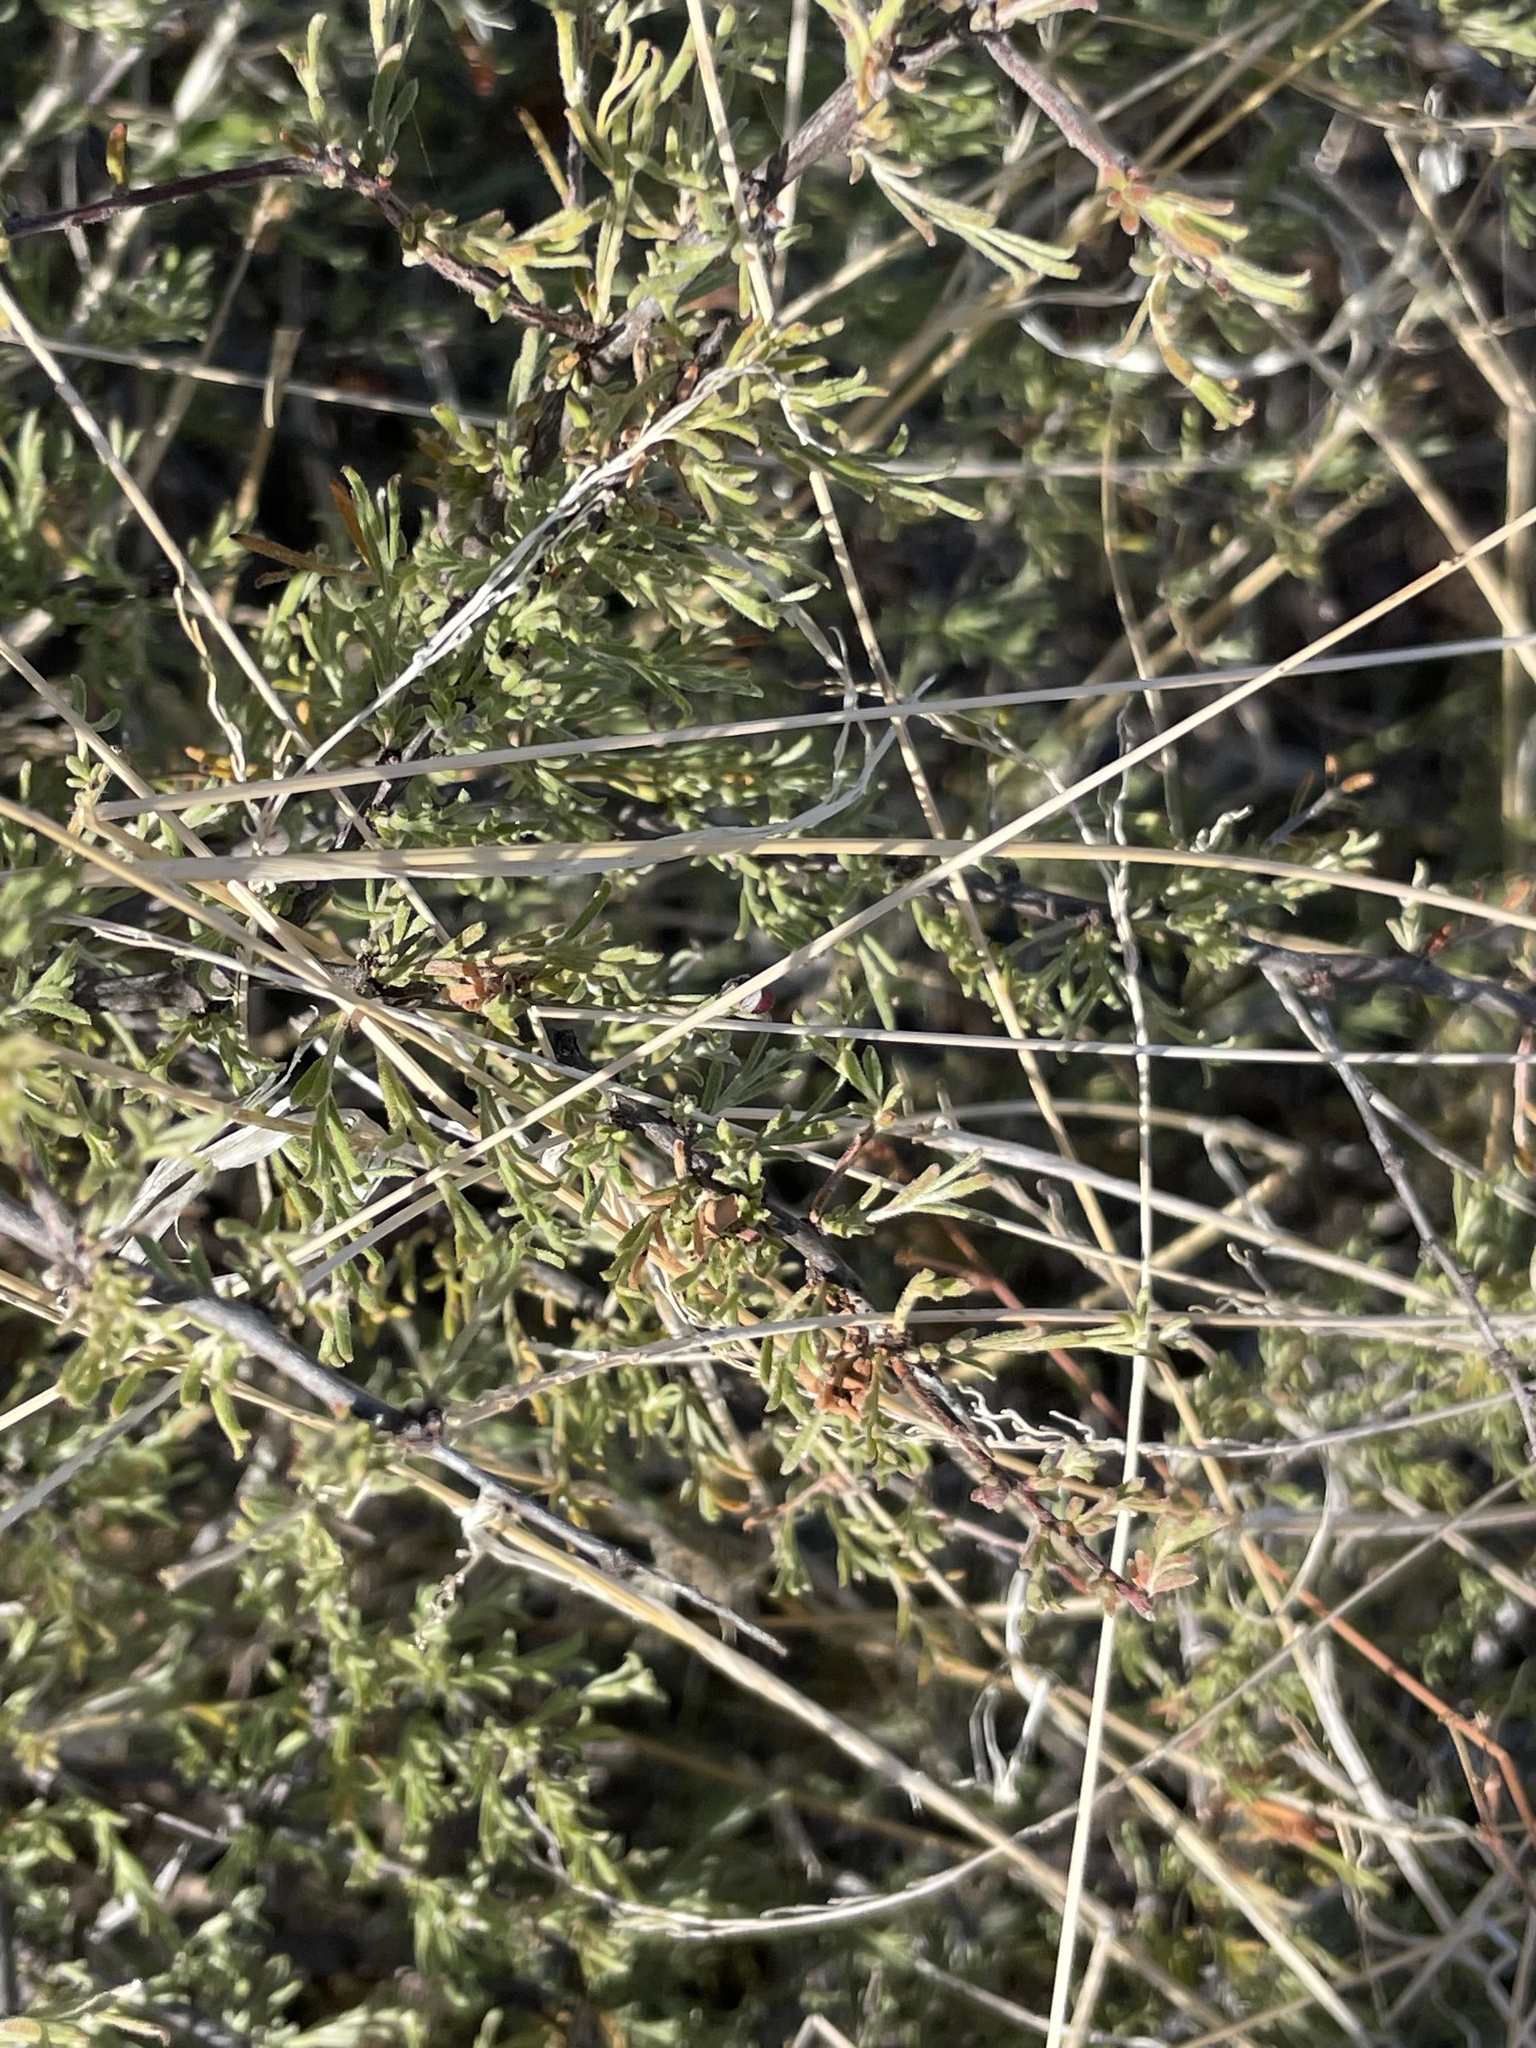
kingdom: Plantae
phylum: Tracheophyta
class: Magnoliopsida
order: Zygophyllales
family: Krameriaceae
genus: Krameria
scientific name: Krameria erecta
